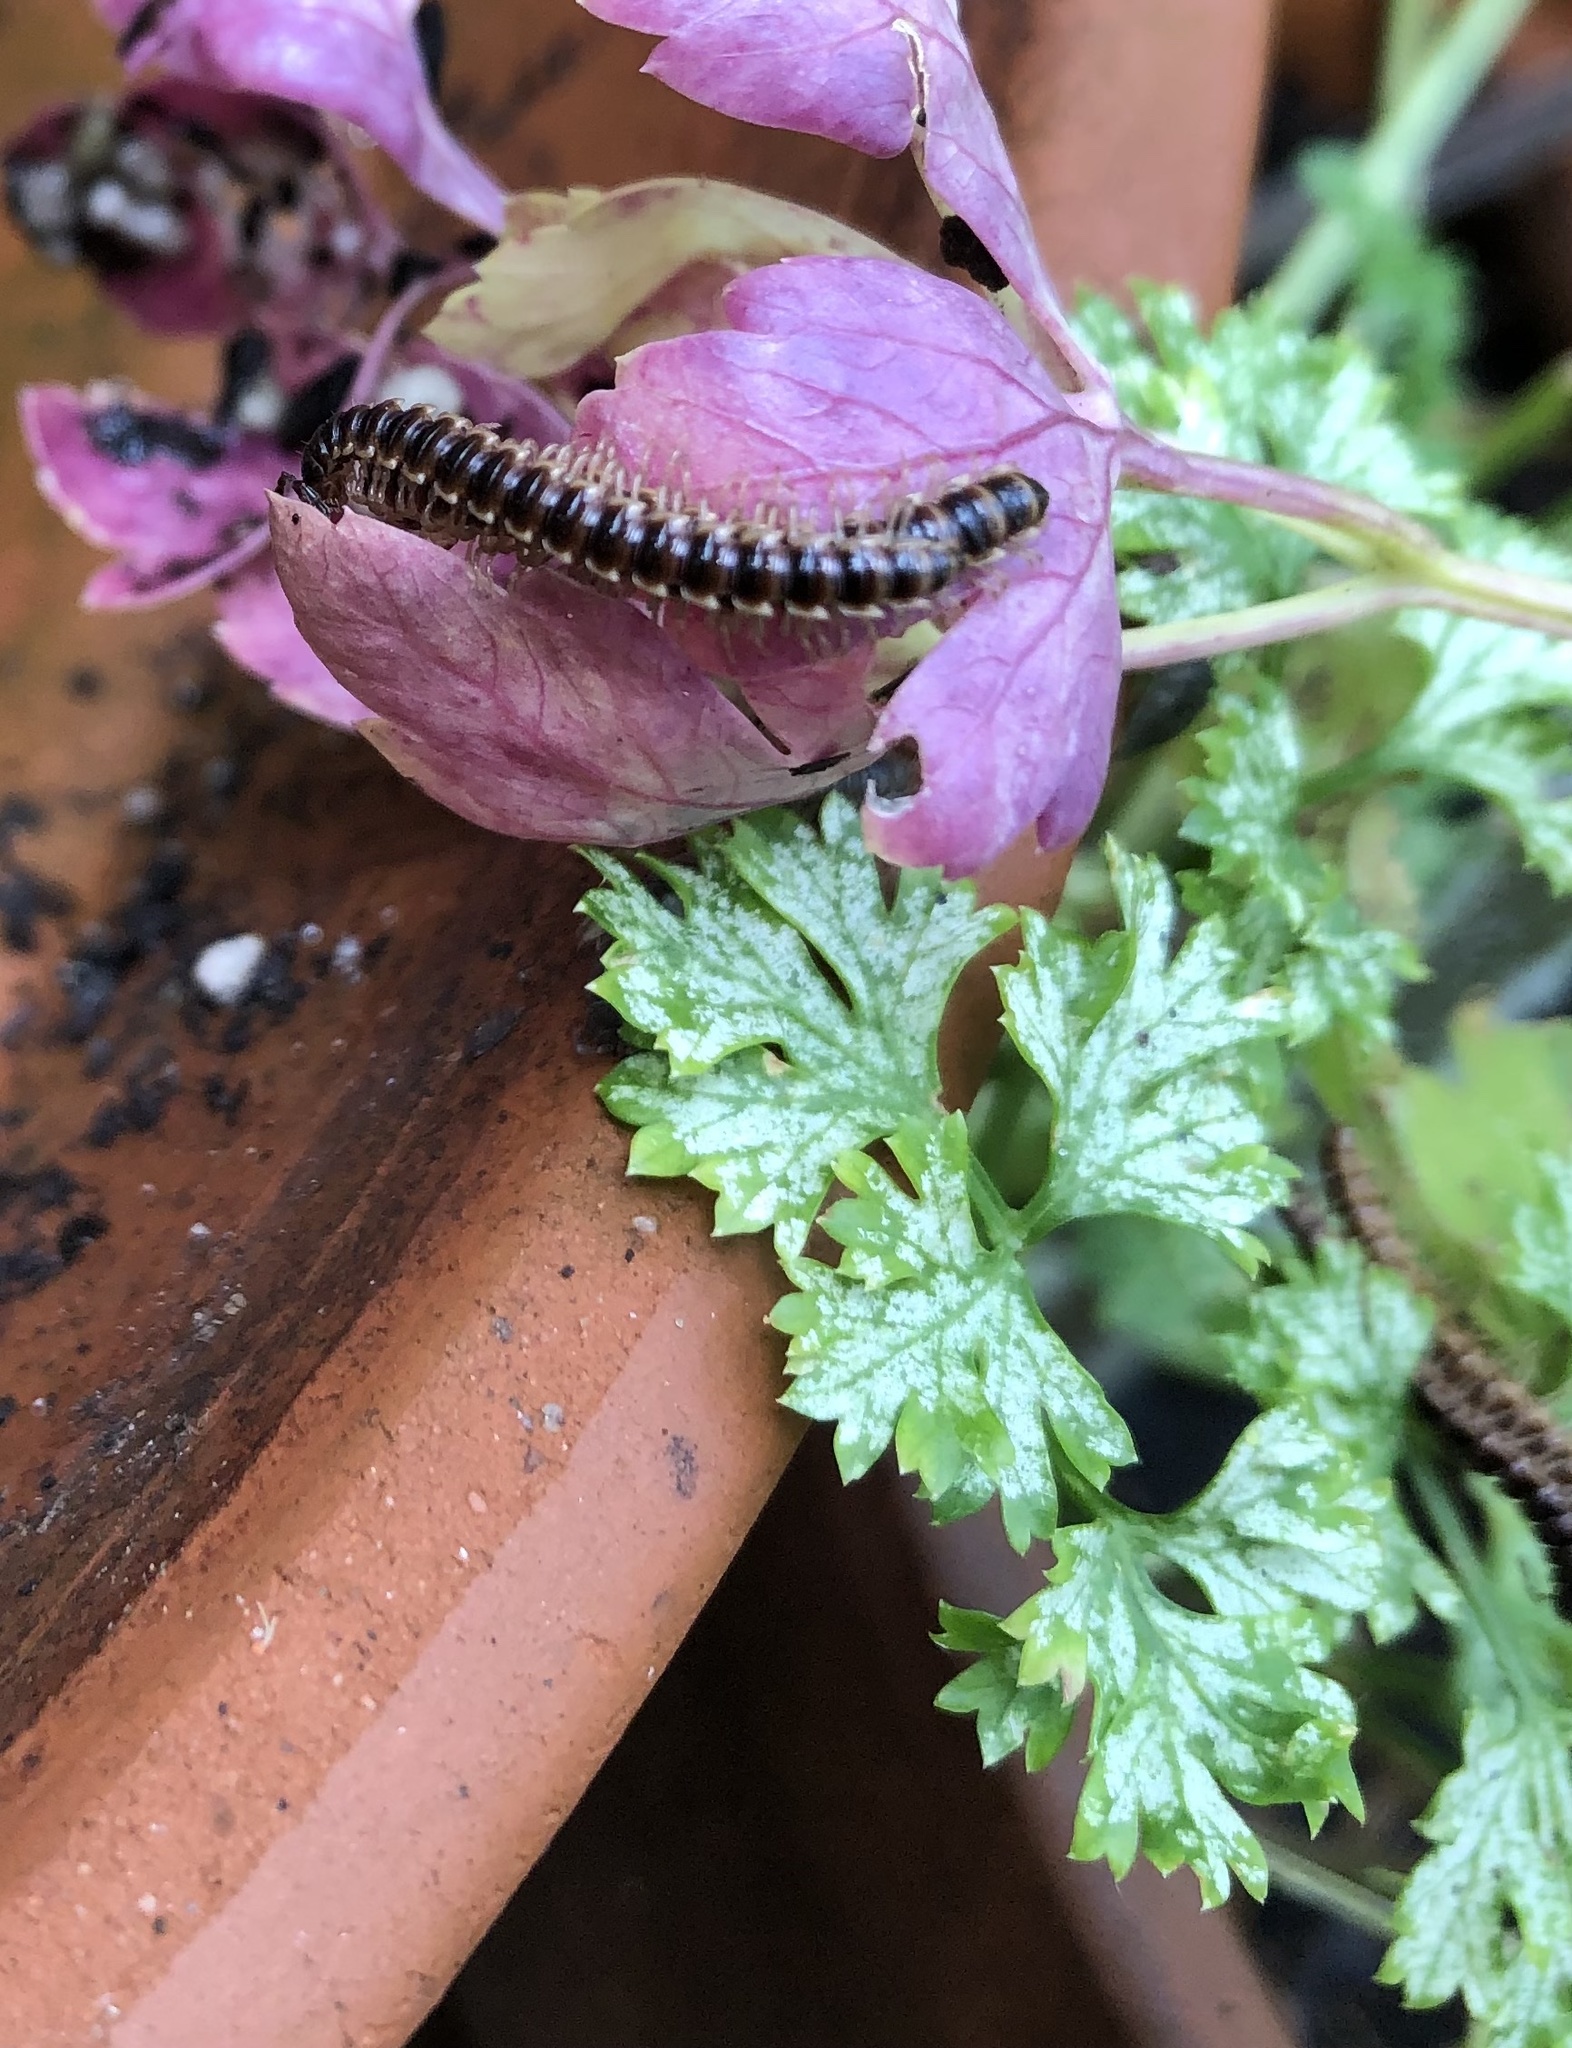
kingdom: Animalia
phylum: Arthropoda
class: Diplopoda
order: Polydesmida
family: Paradoxosomatidae
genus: Oxidus
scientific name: Oxidus gracilis
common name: Greenhouse millipede
